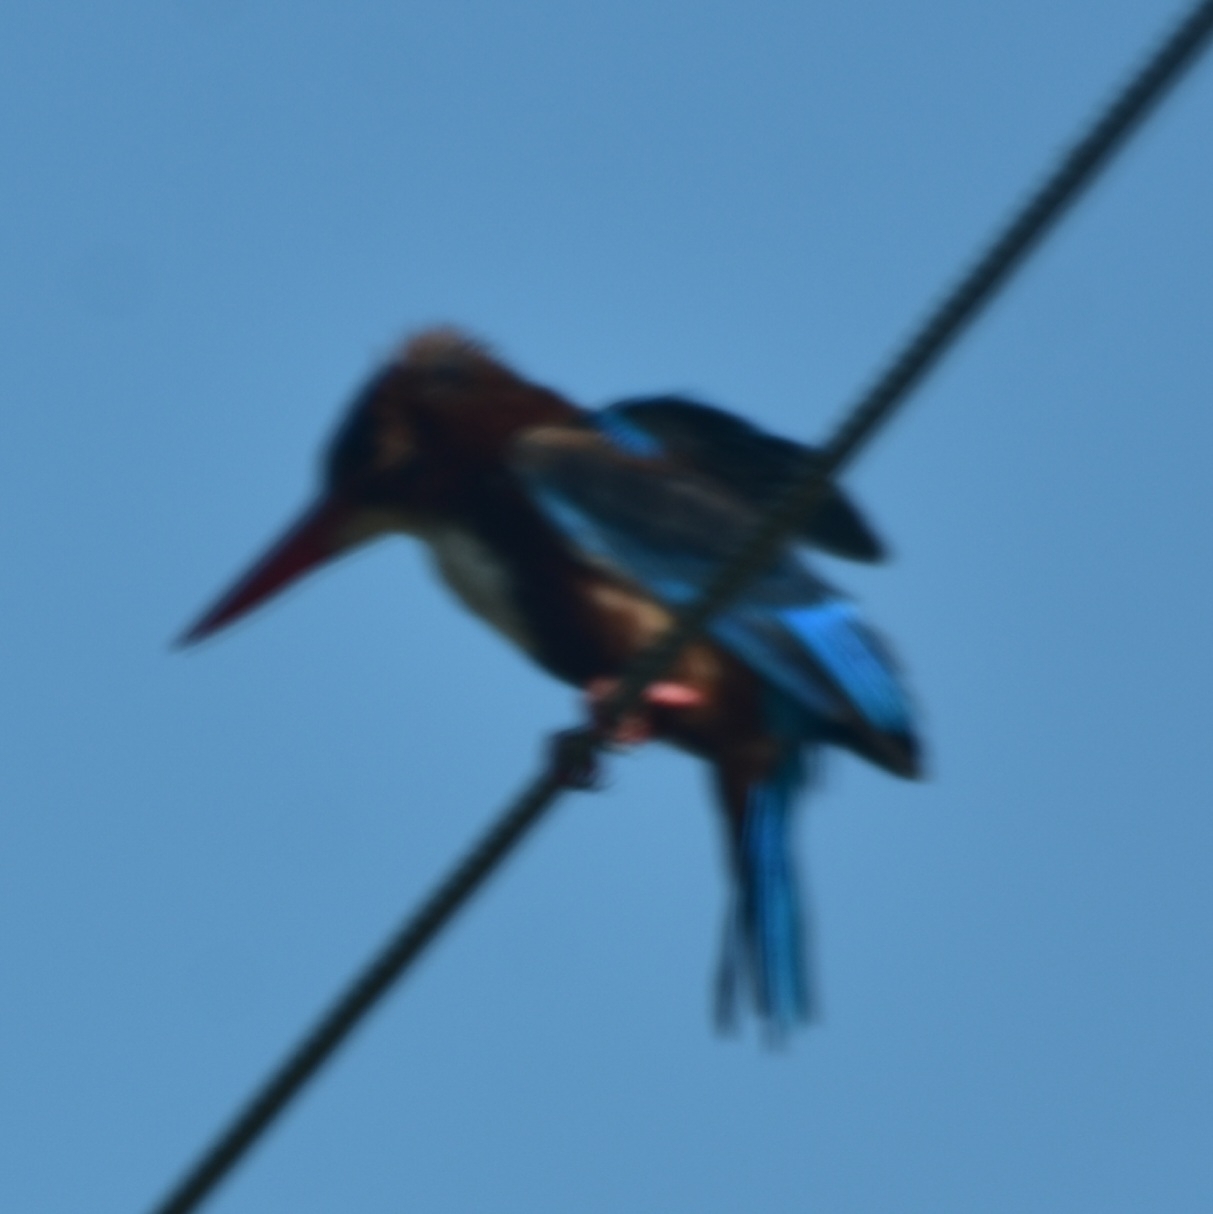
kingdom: Animalia
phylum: Chordata
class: Aves
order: Coraciiformes
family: Alcedinidae
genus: Halcyon
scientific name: Halcyon smyrnensis
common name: White-throated kingfisher
